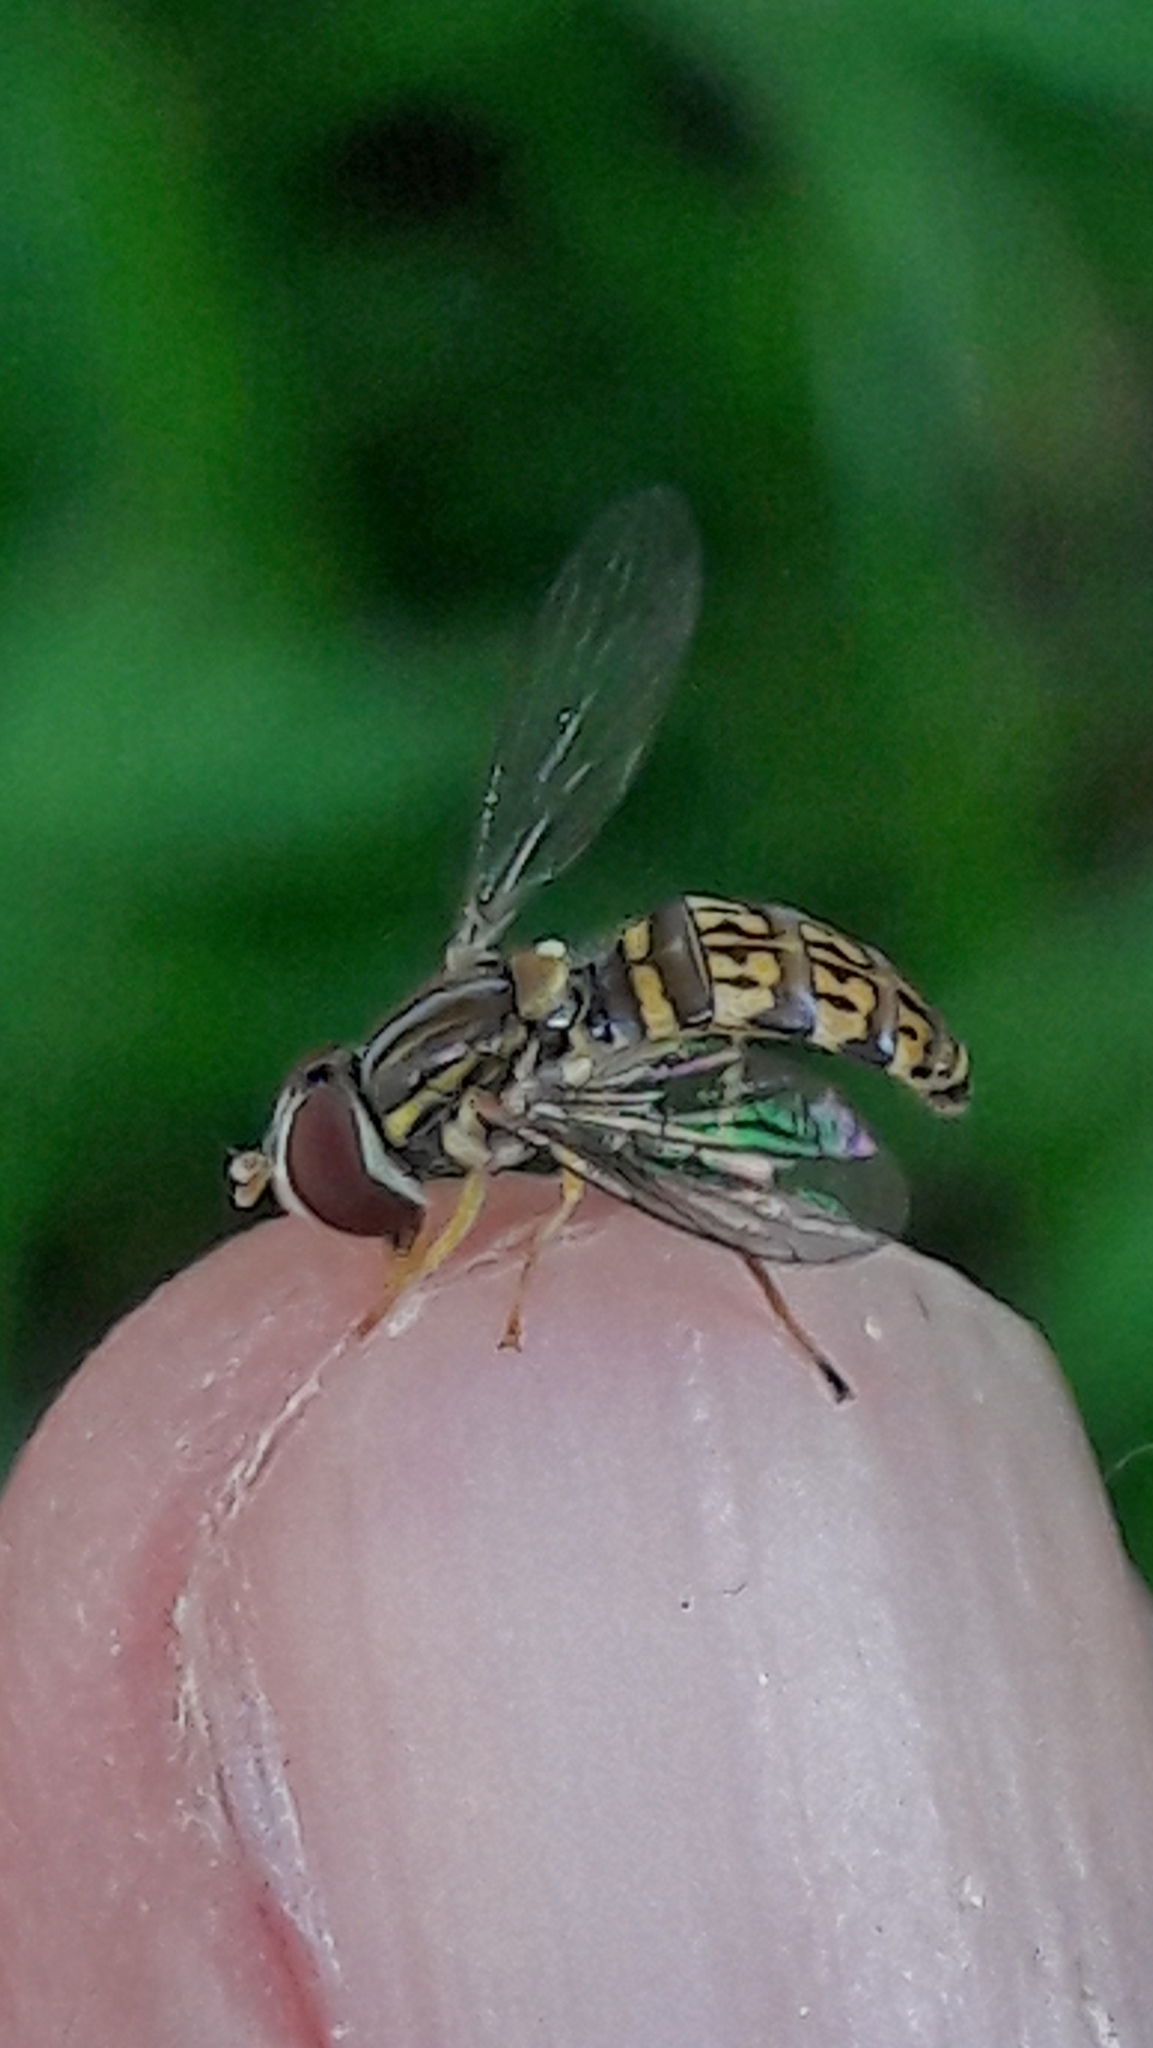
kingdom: Animalia
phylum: Arthropoda
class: Insecta
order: Diptera
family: Syrphidae
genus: Toxomerus
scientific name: Toxomerus
